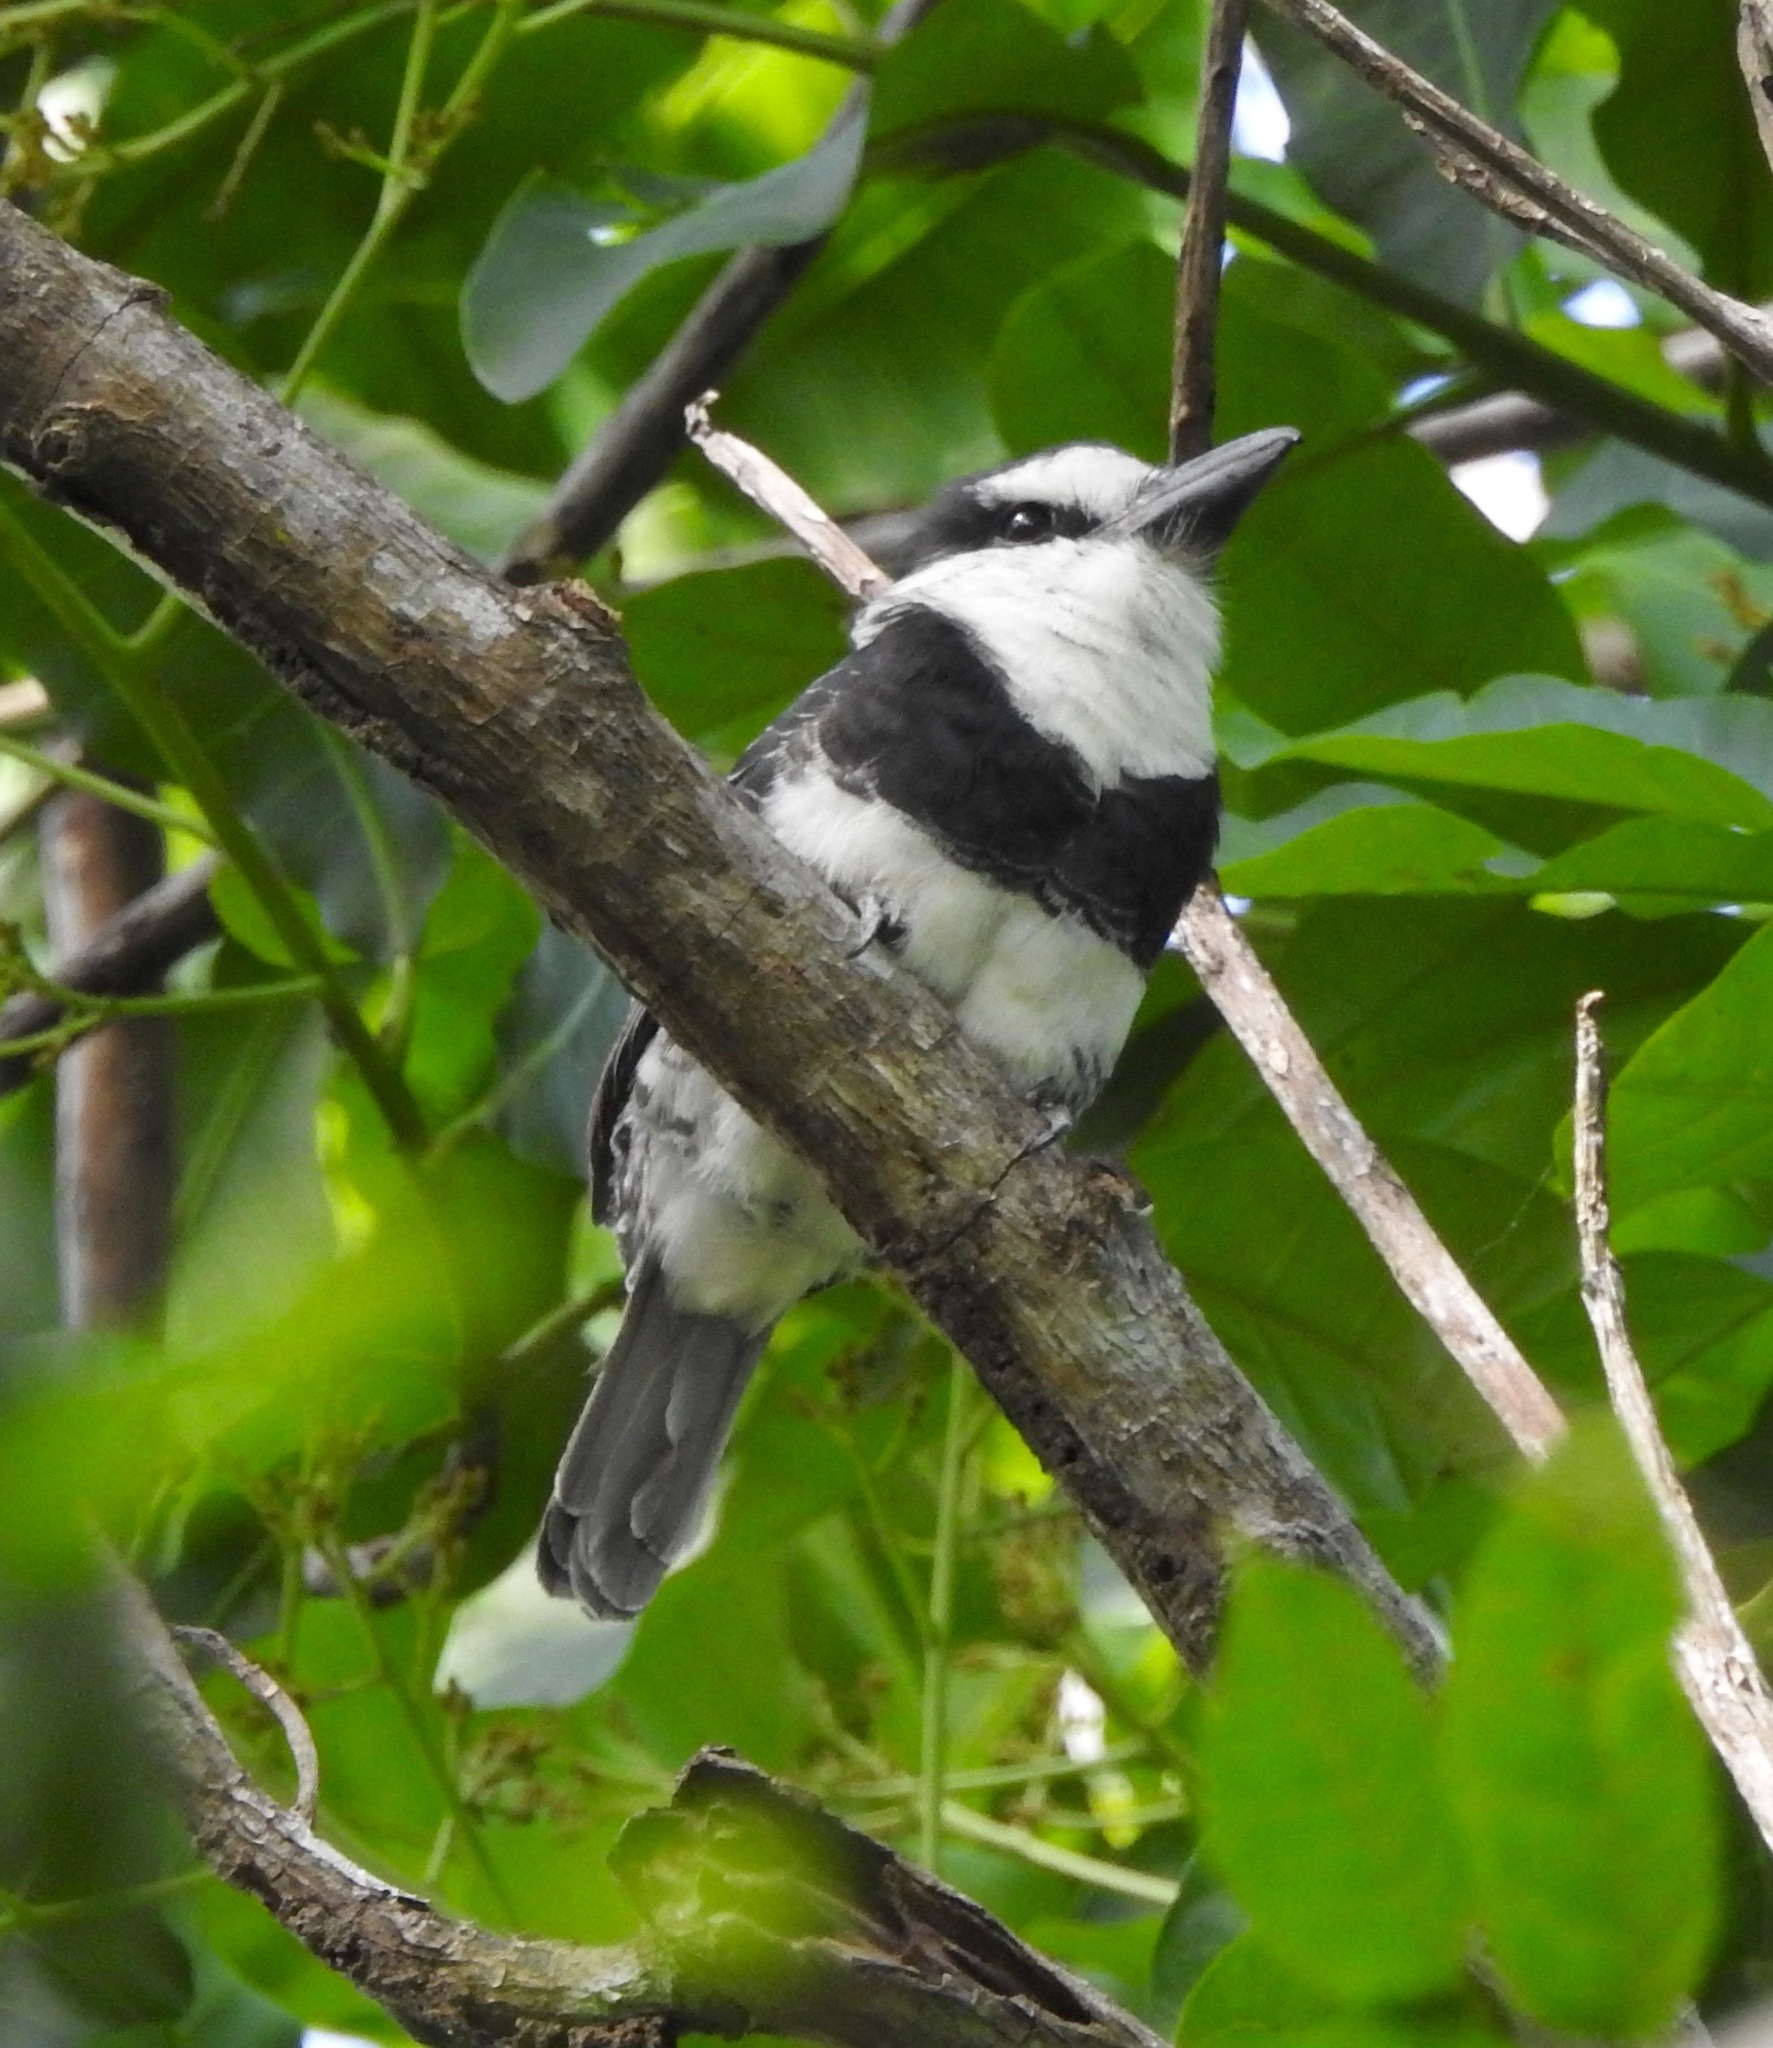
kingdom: Animalia
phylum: Chordata
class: Aves
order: Piciformes
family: Bucconidae
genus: Notharchus
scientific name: Notharchus hyperrhynchus
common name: White-necked puffbird
